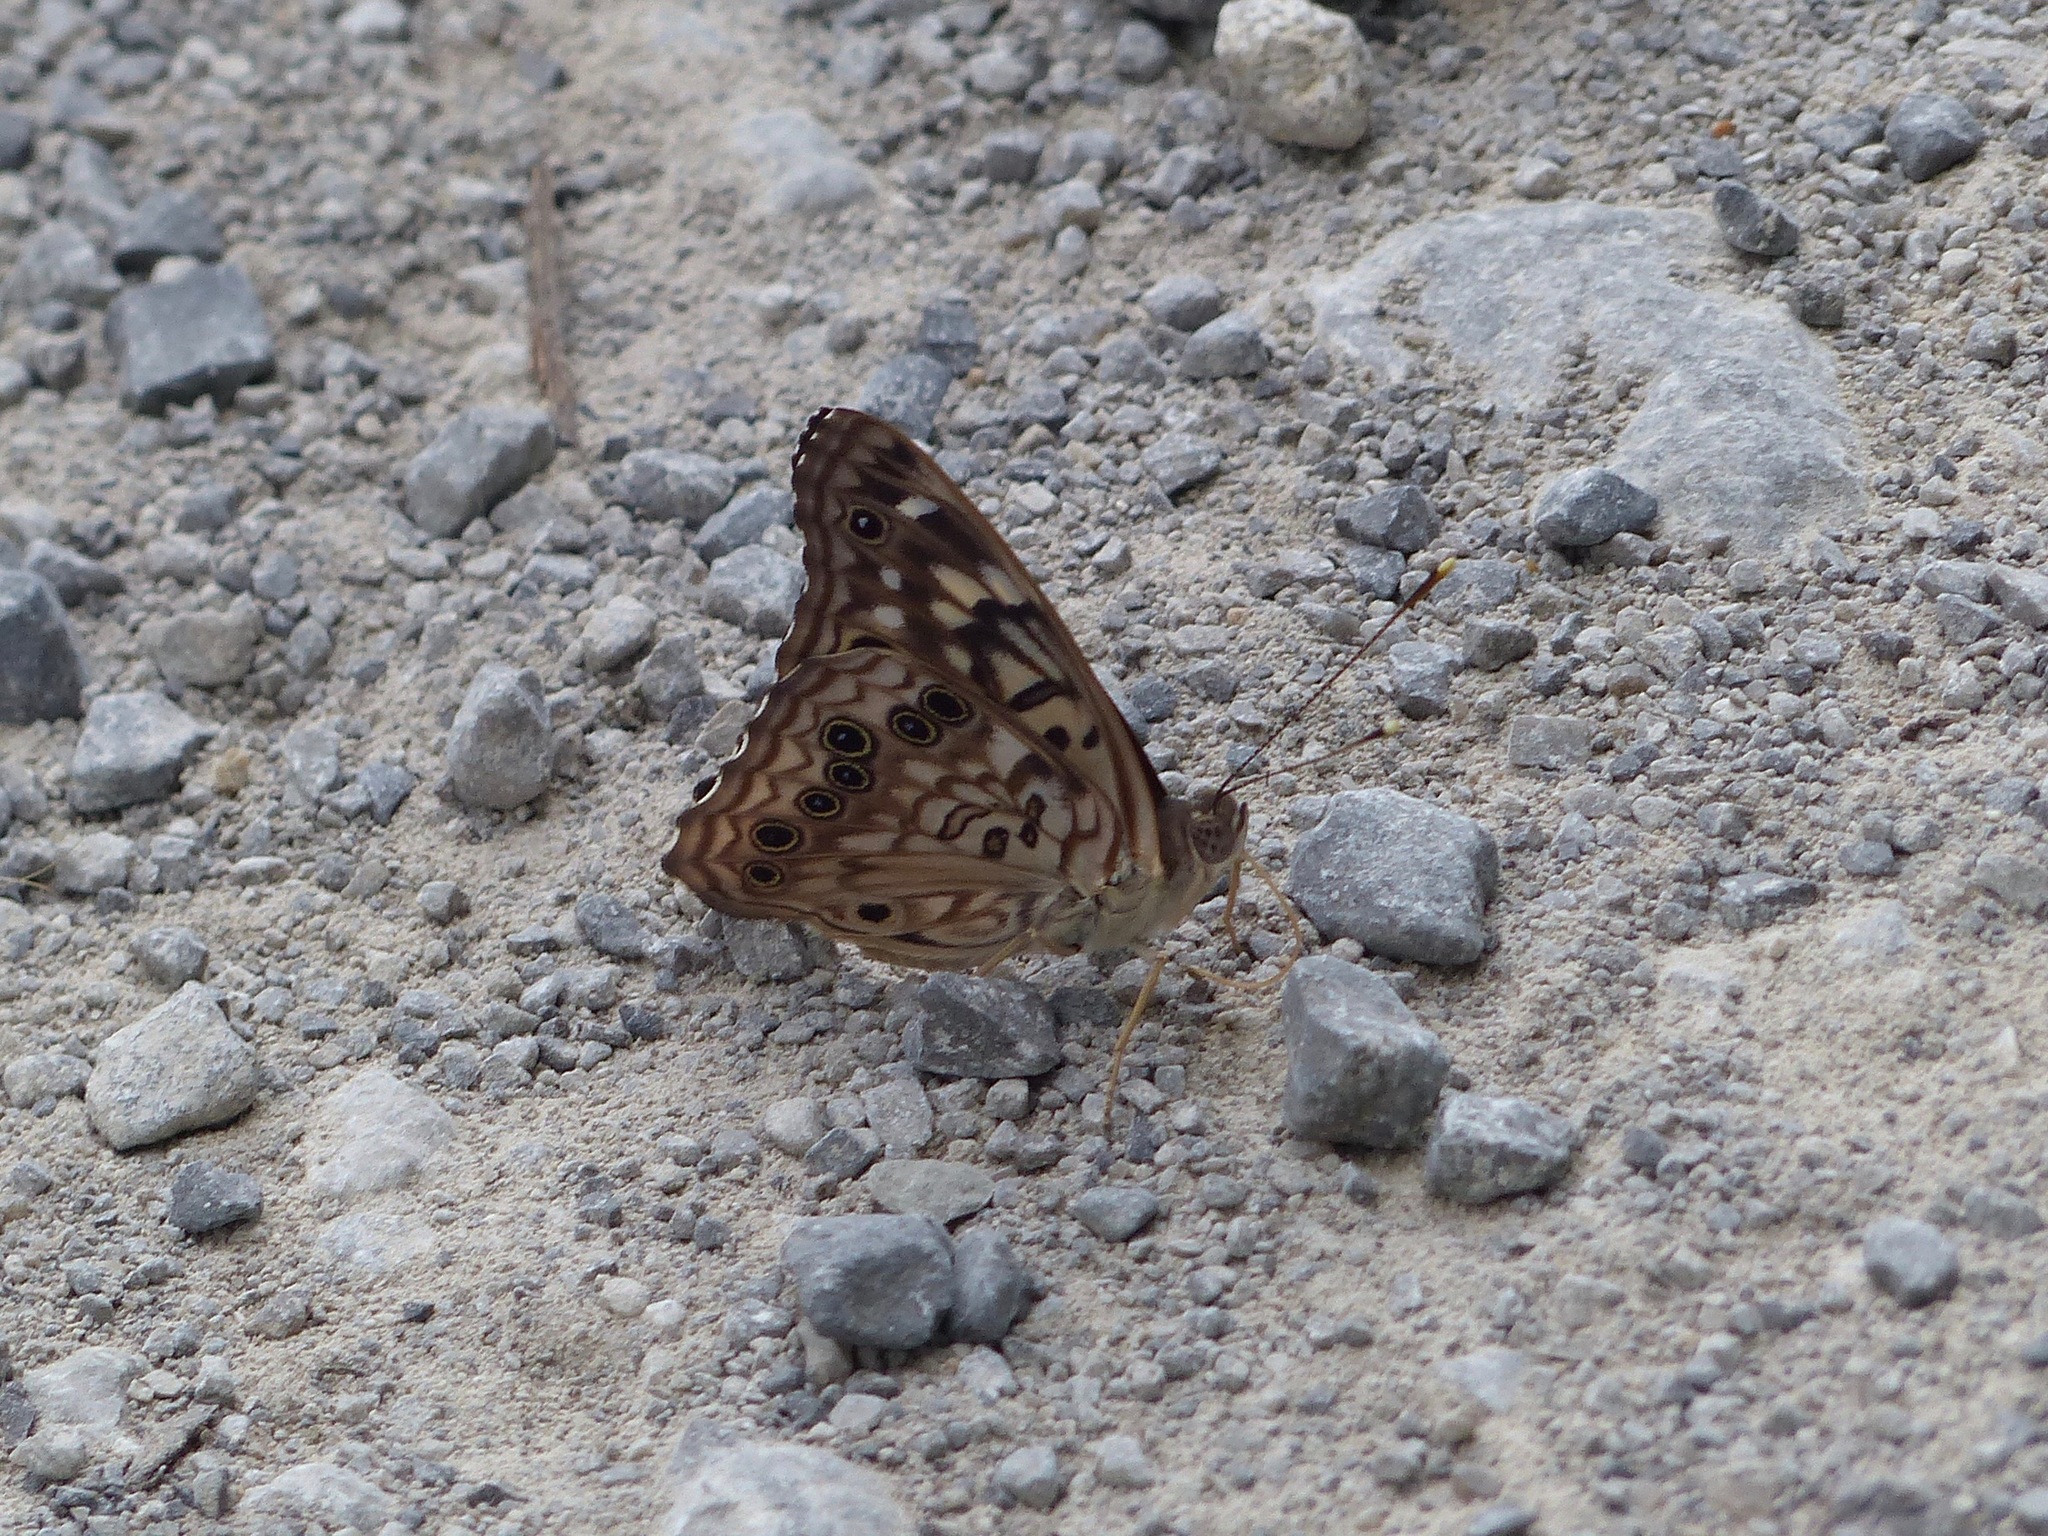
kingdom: Animalia
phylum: Arthropoda
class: Insecta
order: Lepidoptera
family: Nymphalidae
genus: Asterocampa
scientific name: Asterocampa celtis
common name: Hackberry emperor
